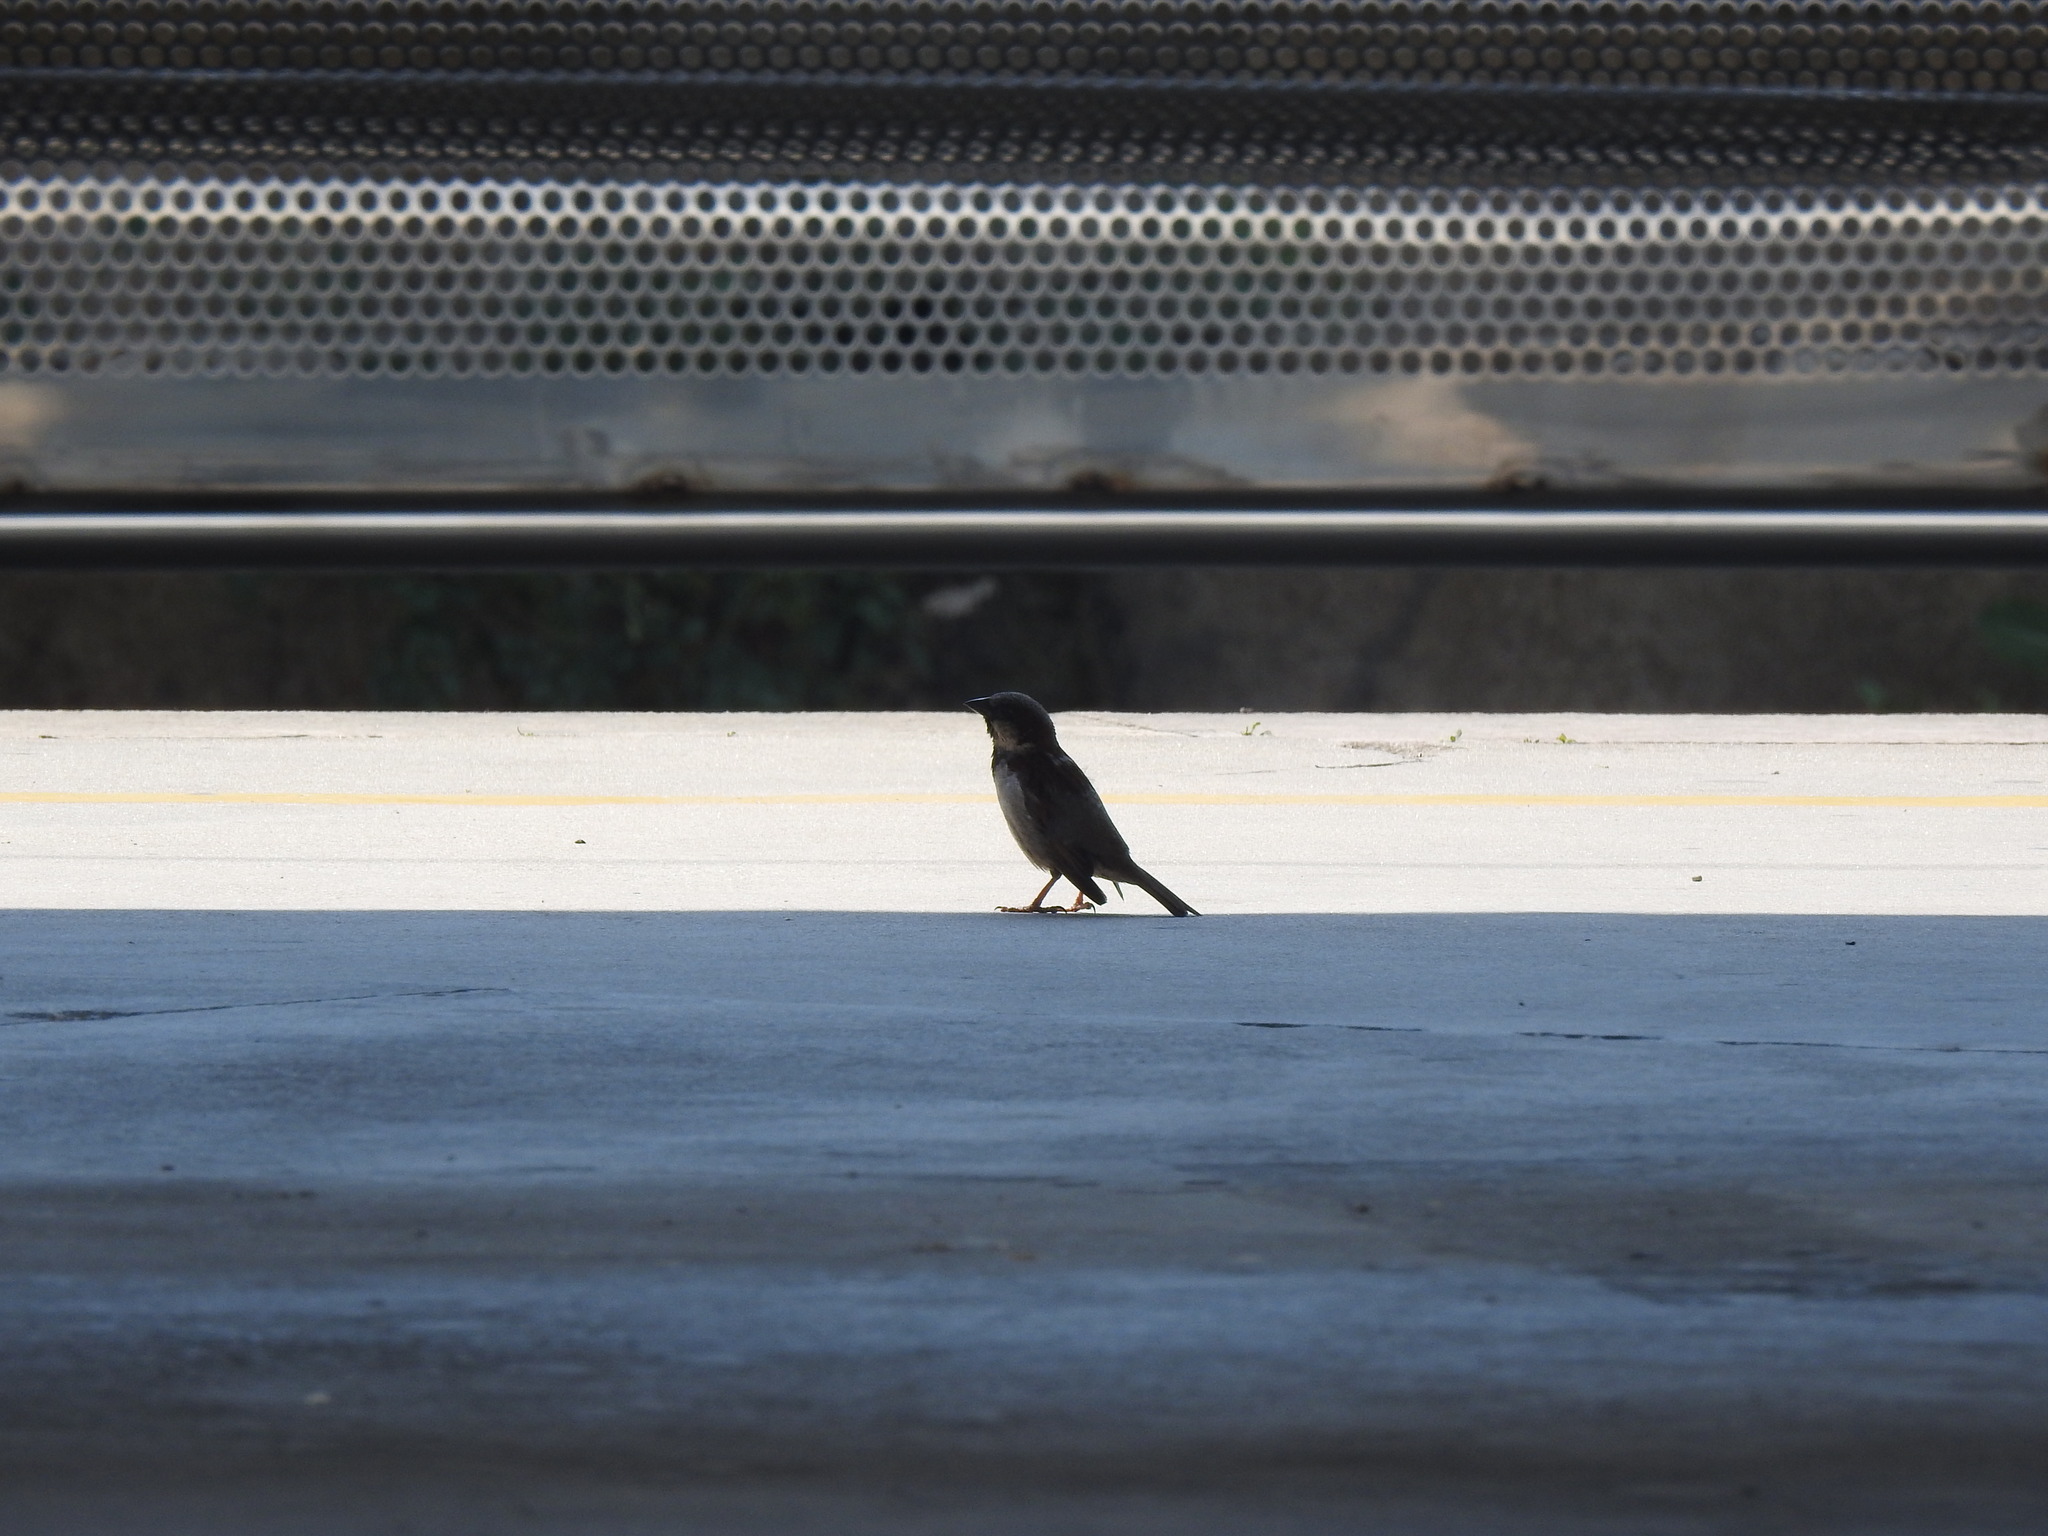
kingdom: Animalia
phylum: Chordata
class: Aves
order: Passeriformes
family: Passeridae
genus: Passer
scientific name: Passer domesticus
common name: House sparrow
